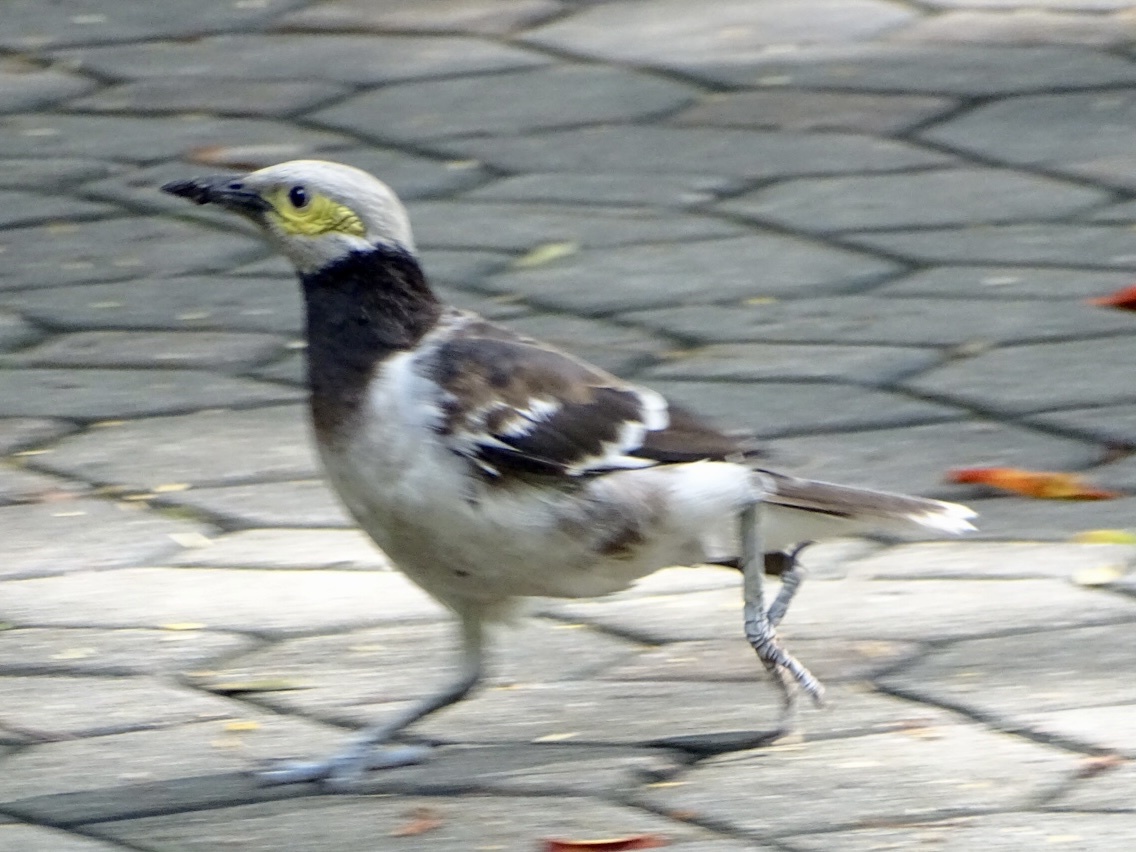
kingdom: Animalia
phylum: Chordata
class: Aves
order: Passeriformes
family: Sturnidae
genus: Gracupica
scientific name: Gracupica nigricollis
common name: Black-collared starling
